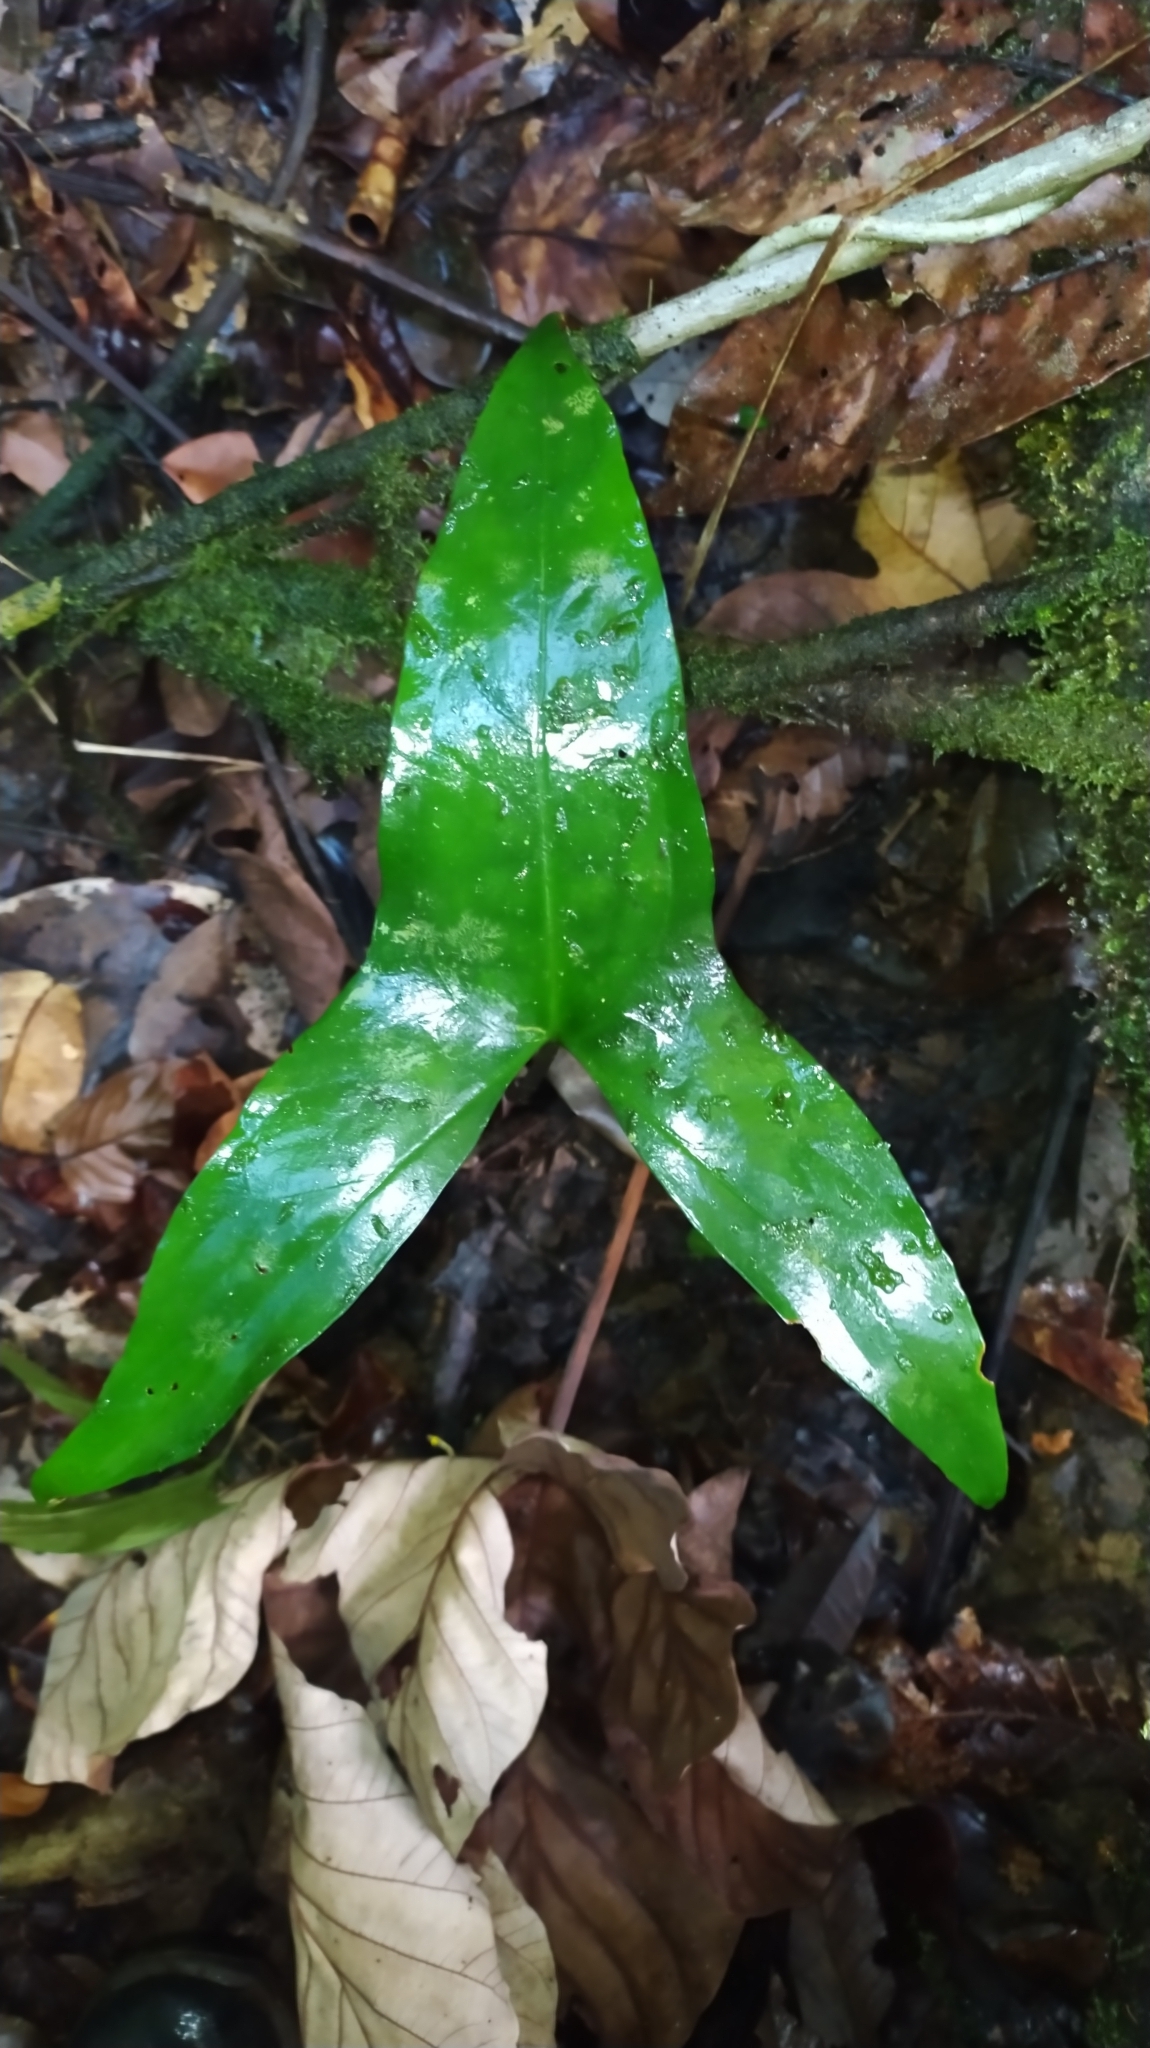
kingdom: Plantae
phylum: Tracheophyta
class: Liliopsida
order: Alismatales
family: Araceae
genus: Urospatha
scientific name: Urospatha sagittifolia
